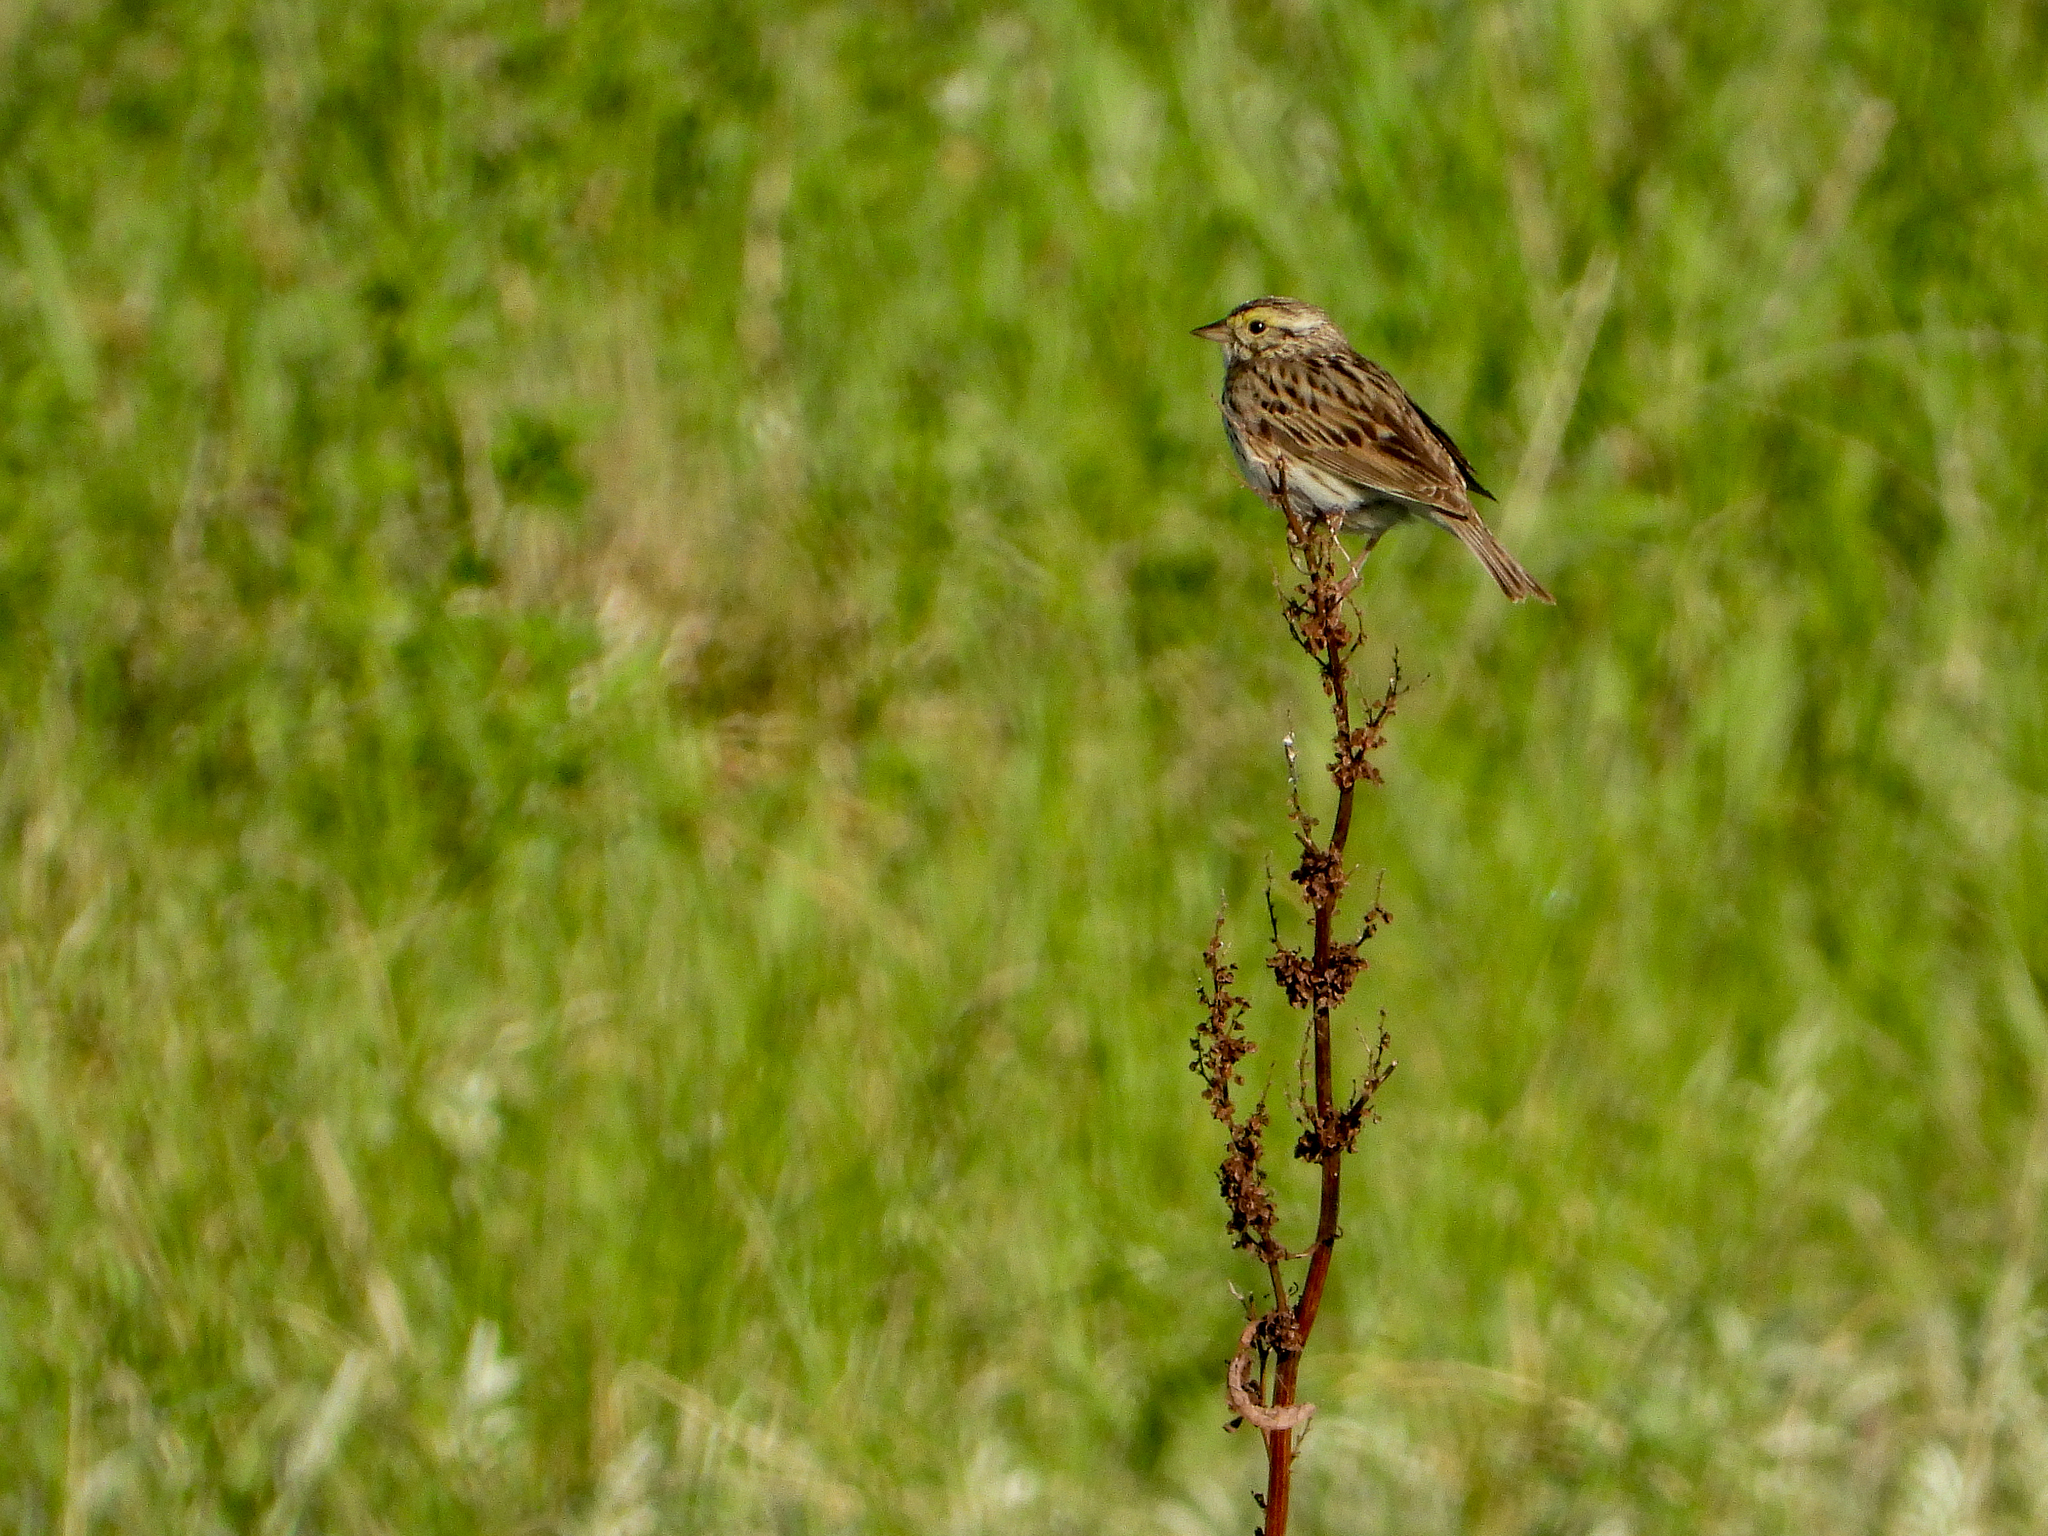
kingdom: Animalia
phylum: Chordata
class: Aves
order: Passeriformes
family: Passerellidae
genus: Passerculus
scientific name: Passerculus sandwichensis
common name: Savannah sparrow
